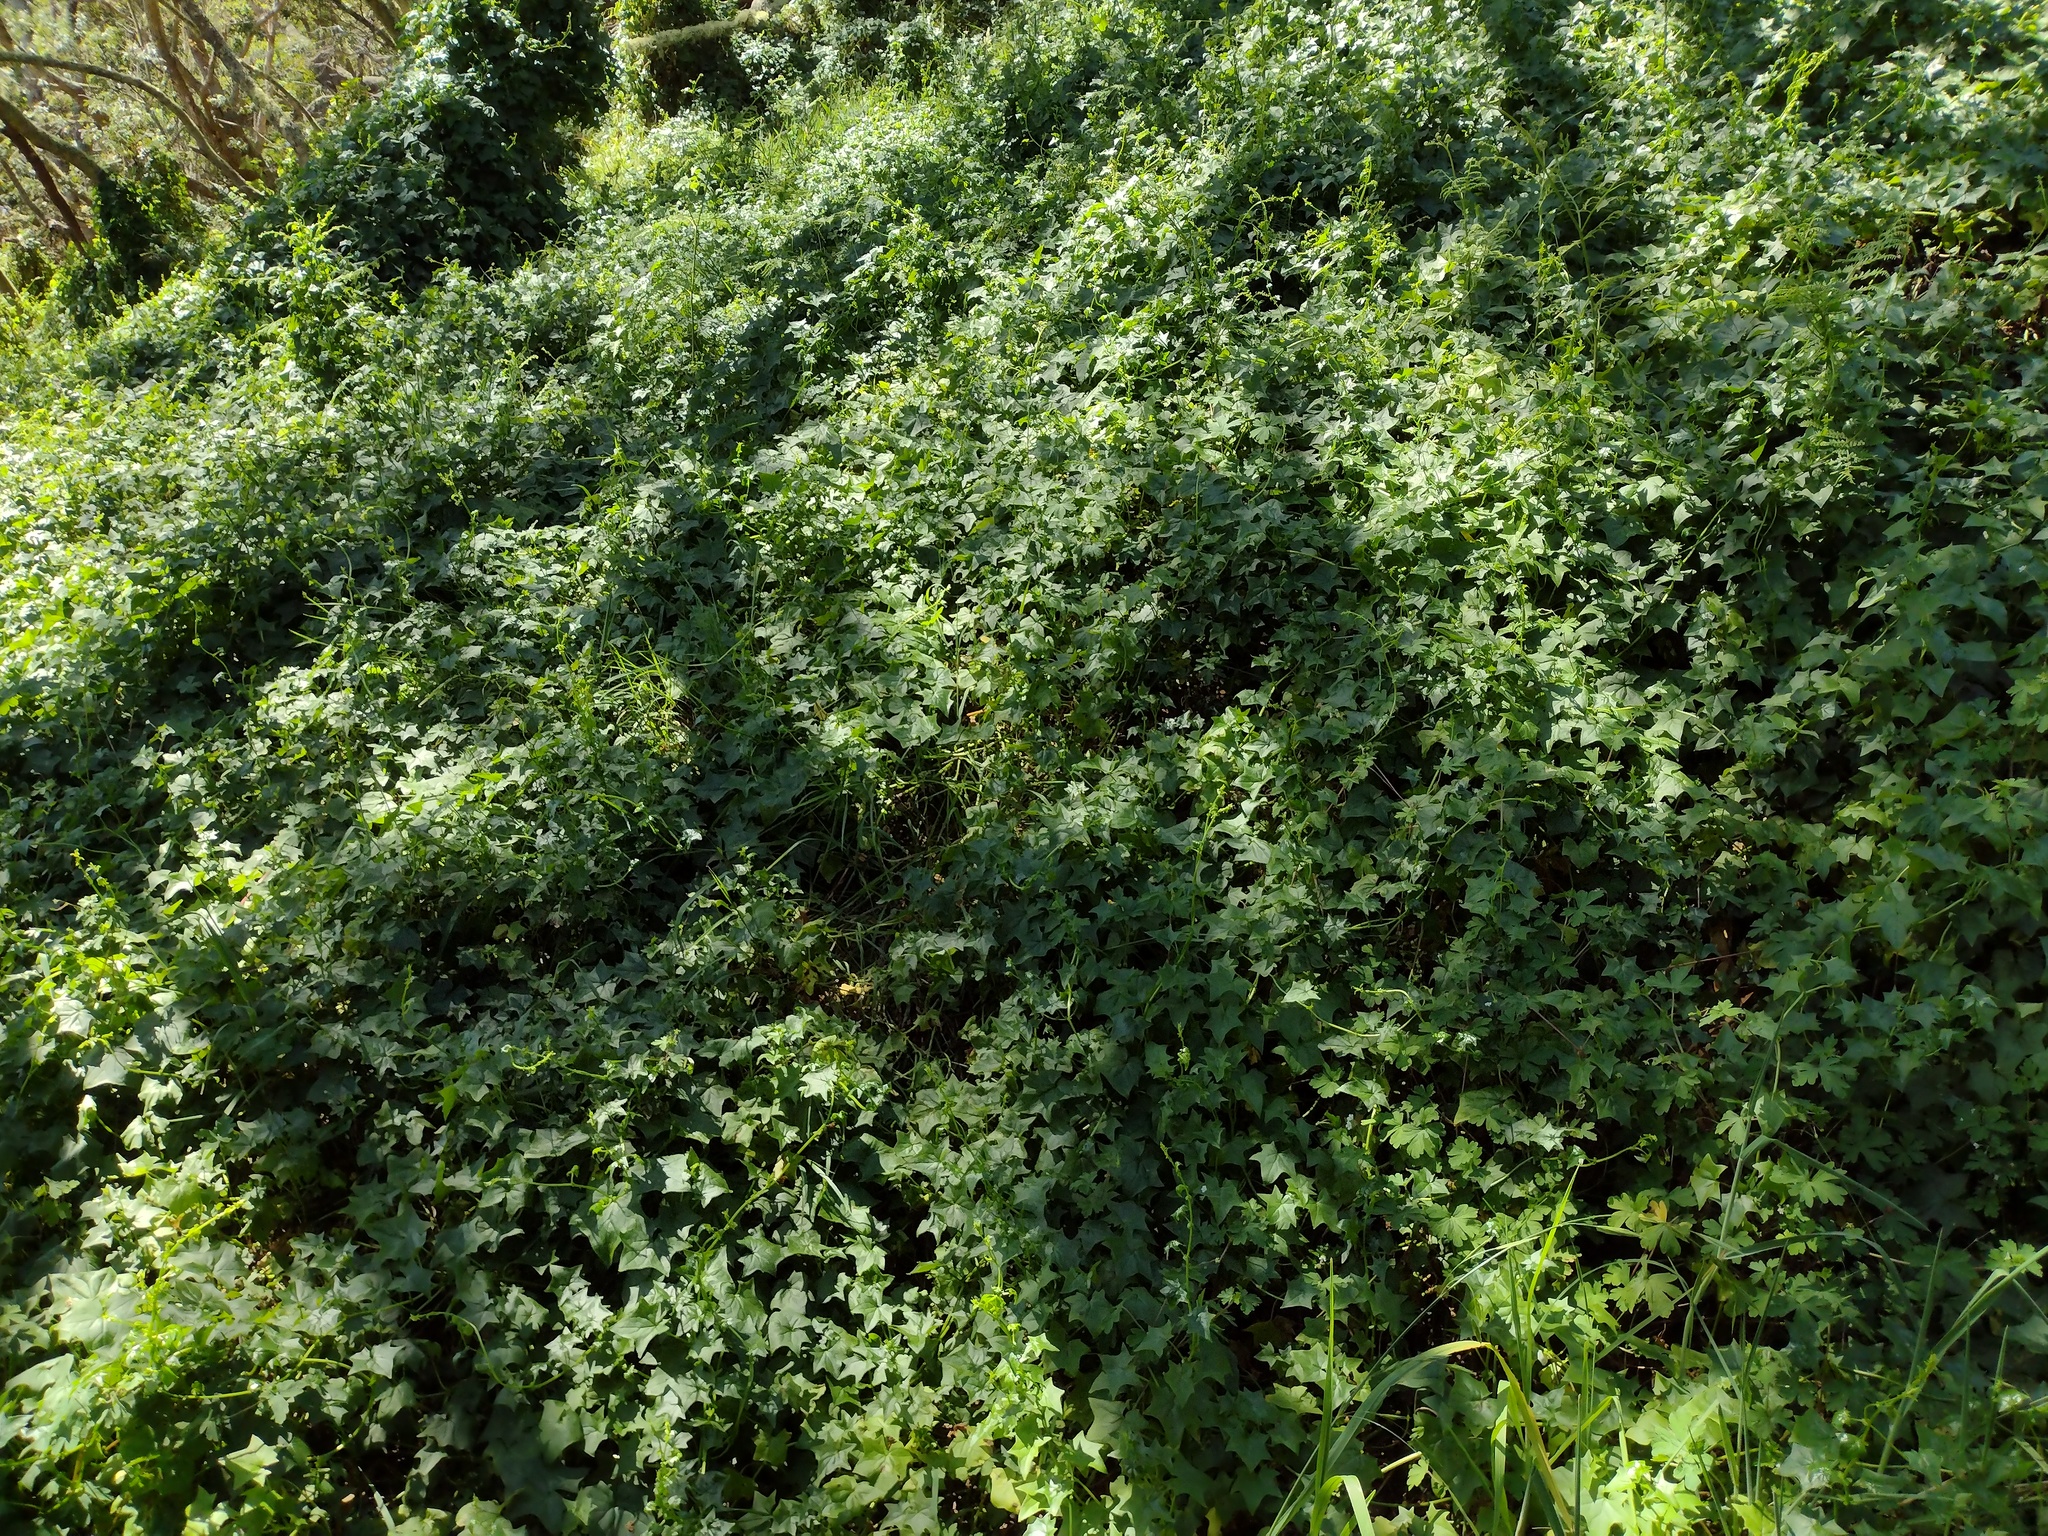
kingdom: Plantae
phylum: Tracheophyta
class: Magnoliopsida
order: Asterales
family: Asteraceae
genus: Delairea
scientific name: Delairea odorata
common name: Cape-ivy
